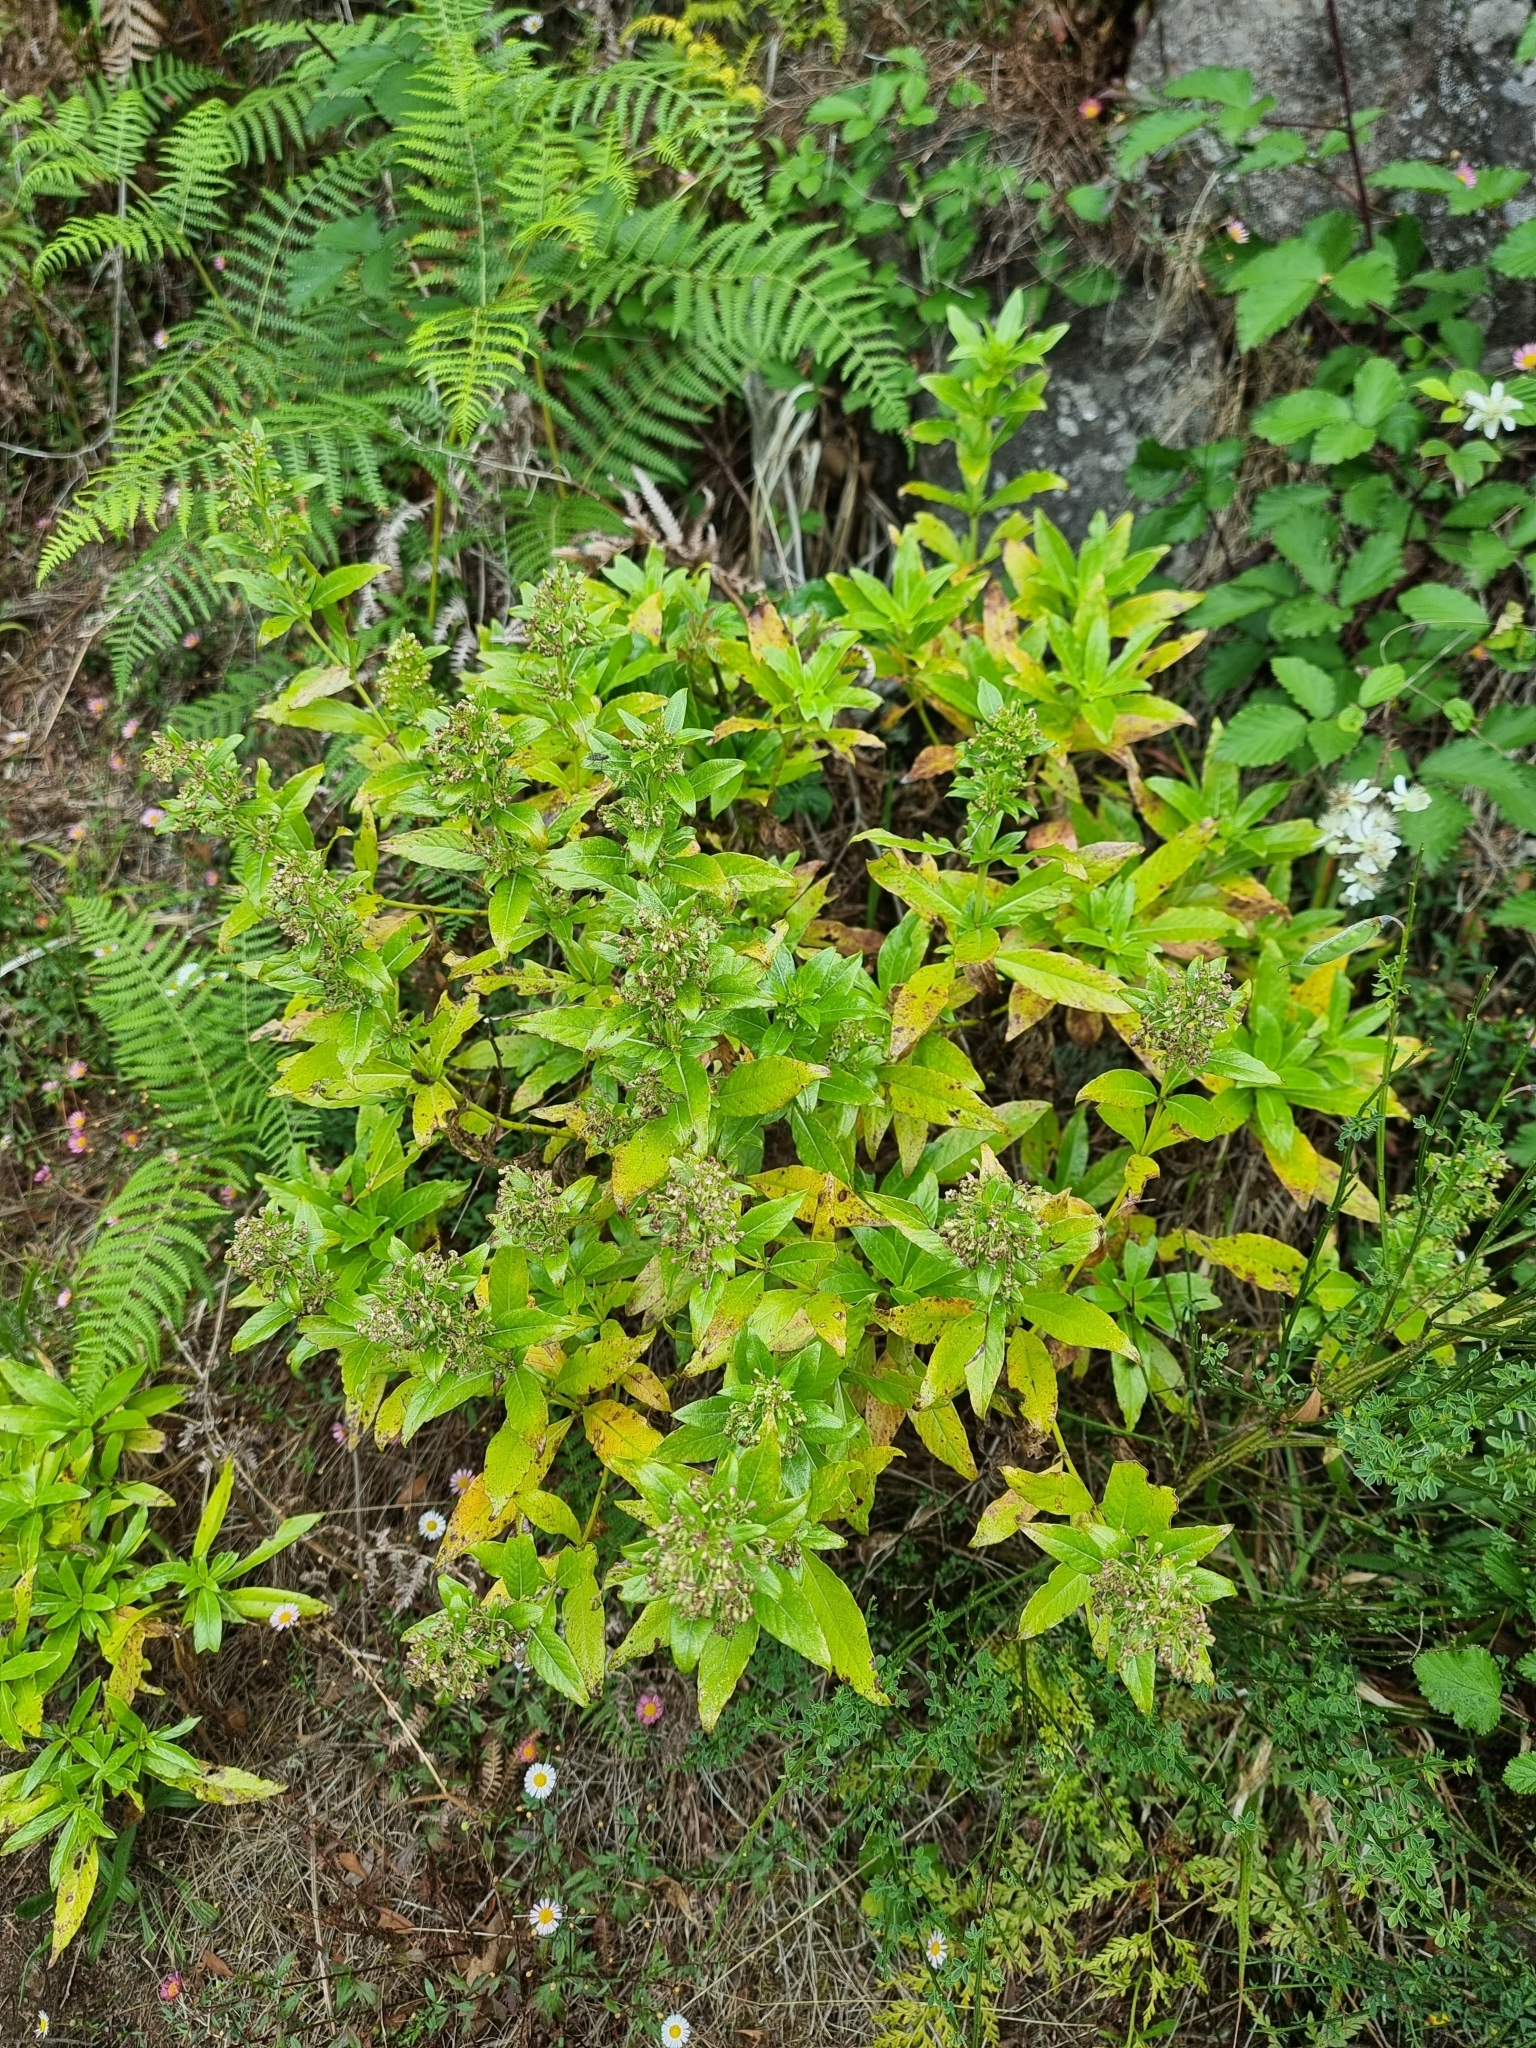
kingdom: Plantae
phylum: Tracheophyta
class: Magnoliopsida
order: Gentianales
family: Rubiaceae
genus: Phyllis
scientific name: Phyllis nobla
